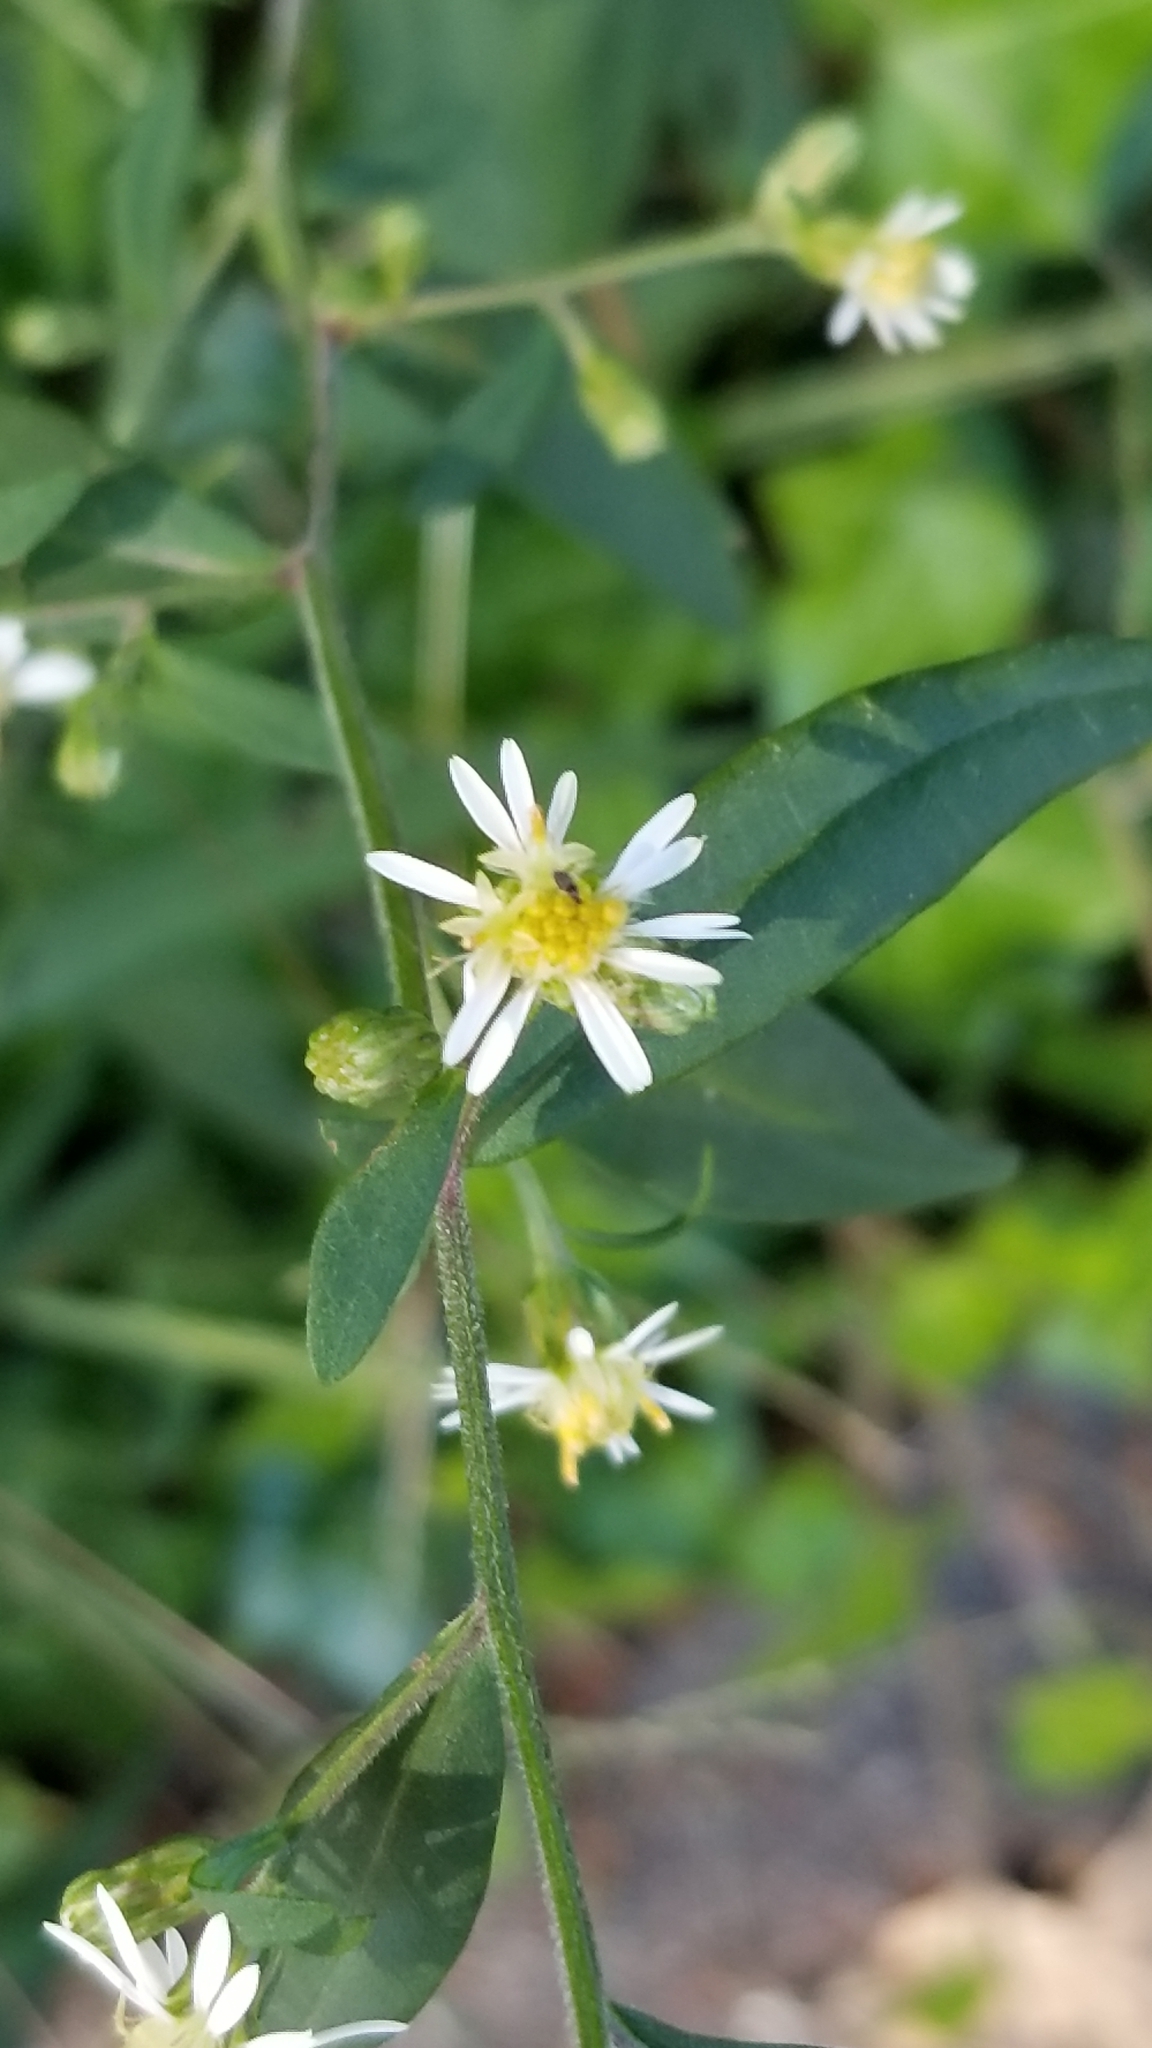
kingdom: Plantae
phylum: Tracheophyta
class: Magnoliopsida
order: Asterales
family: Asteraceae
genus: Symphyotrichum
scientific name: Symphyotrichum lateriflorum
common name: Calico aster
